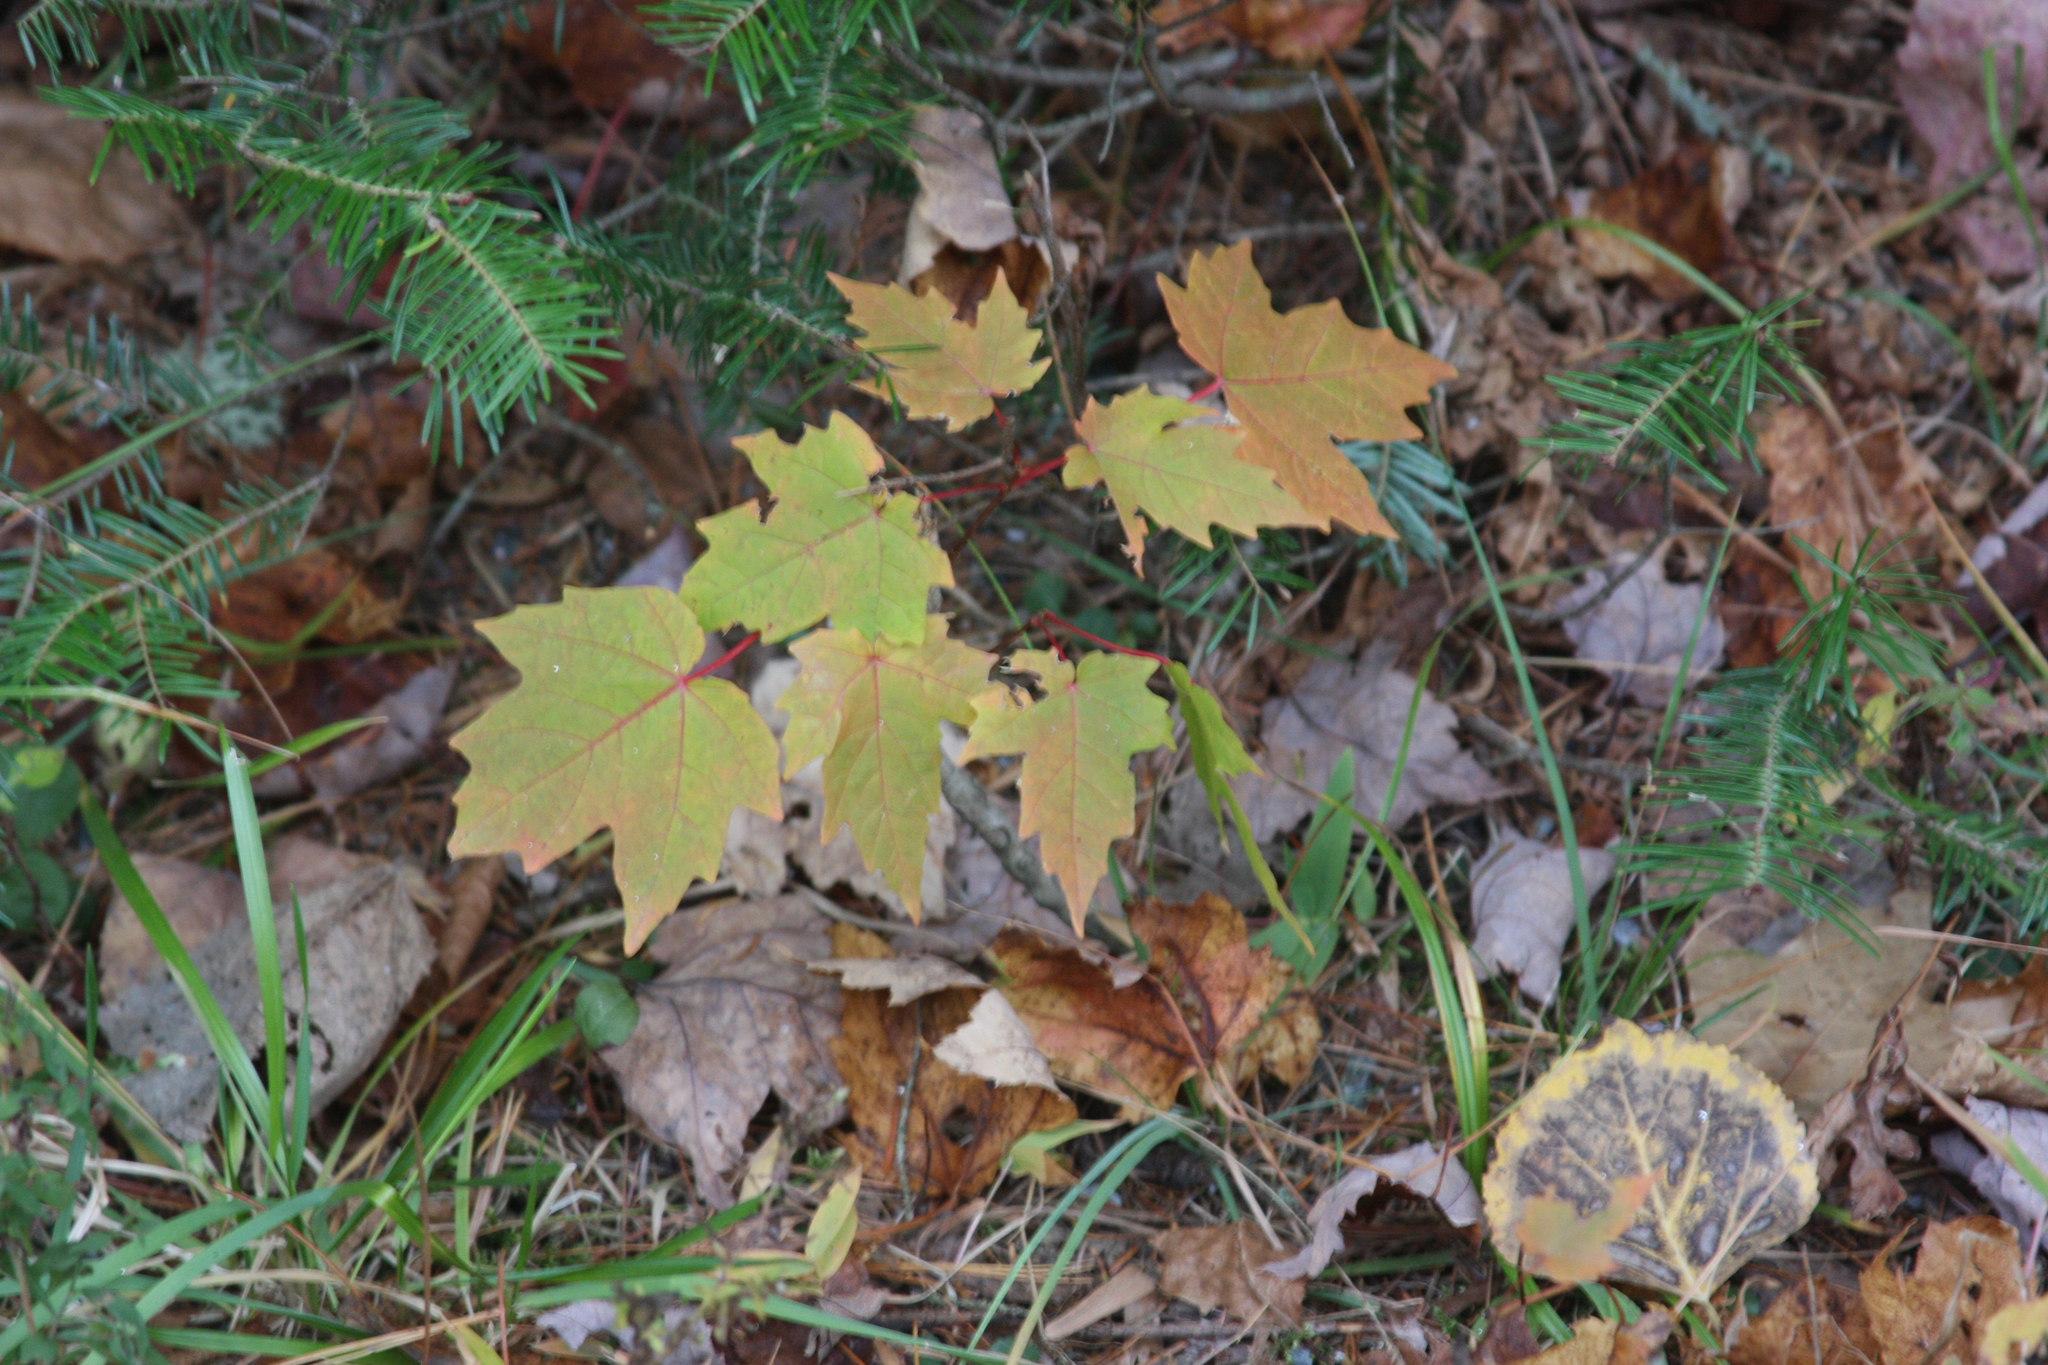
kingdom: Plantae
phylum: Tracheophyta
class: Magnoliopsida
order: Sapindales
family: Sapindaceae
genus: Acer
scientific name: Acer saccharum
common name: Sugar maple
